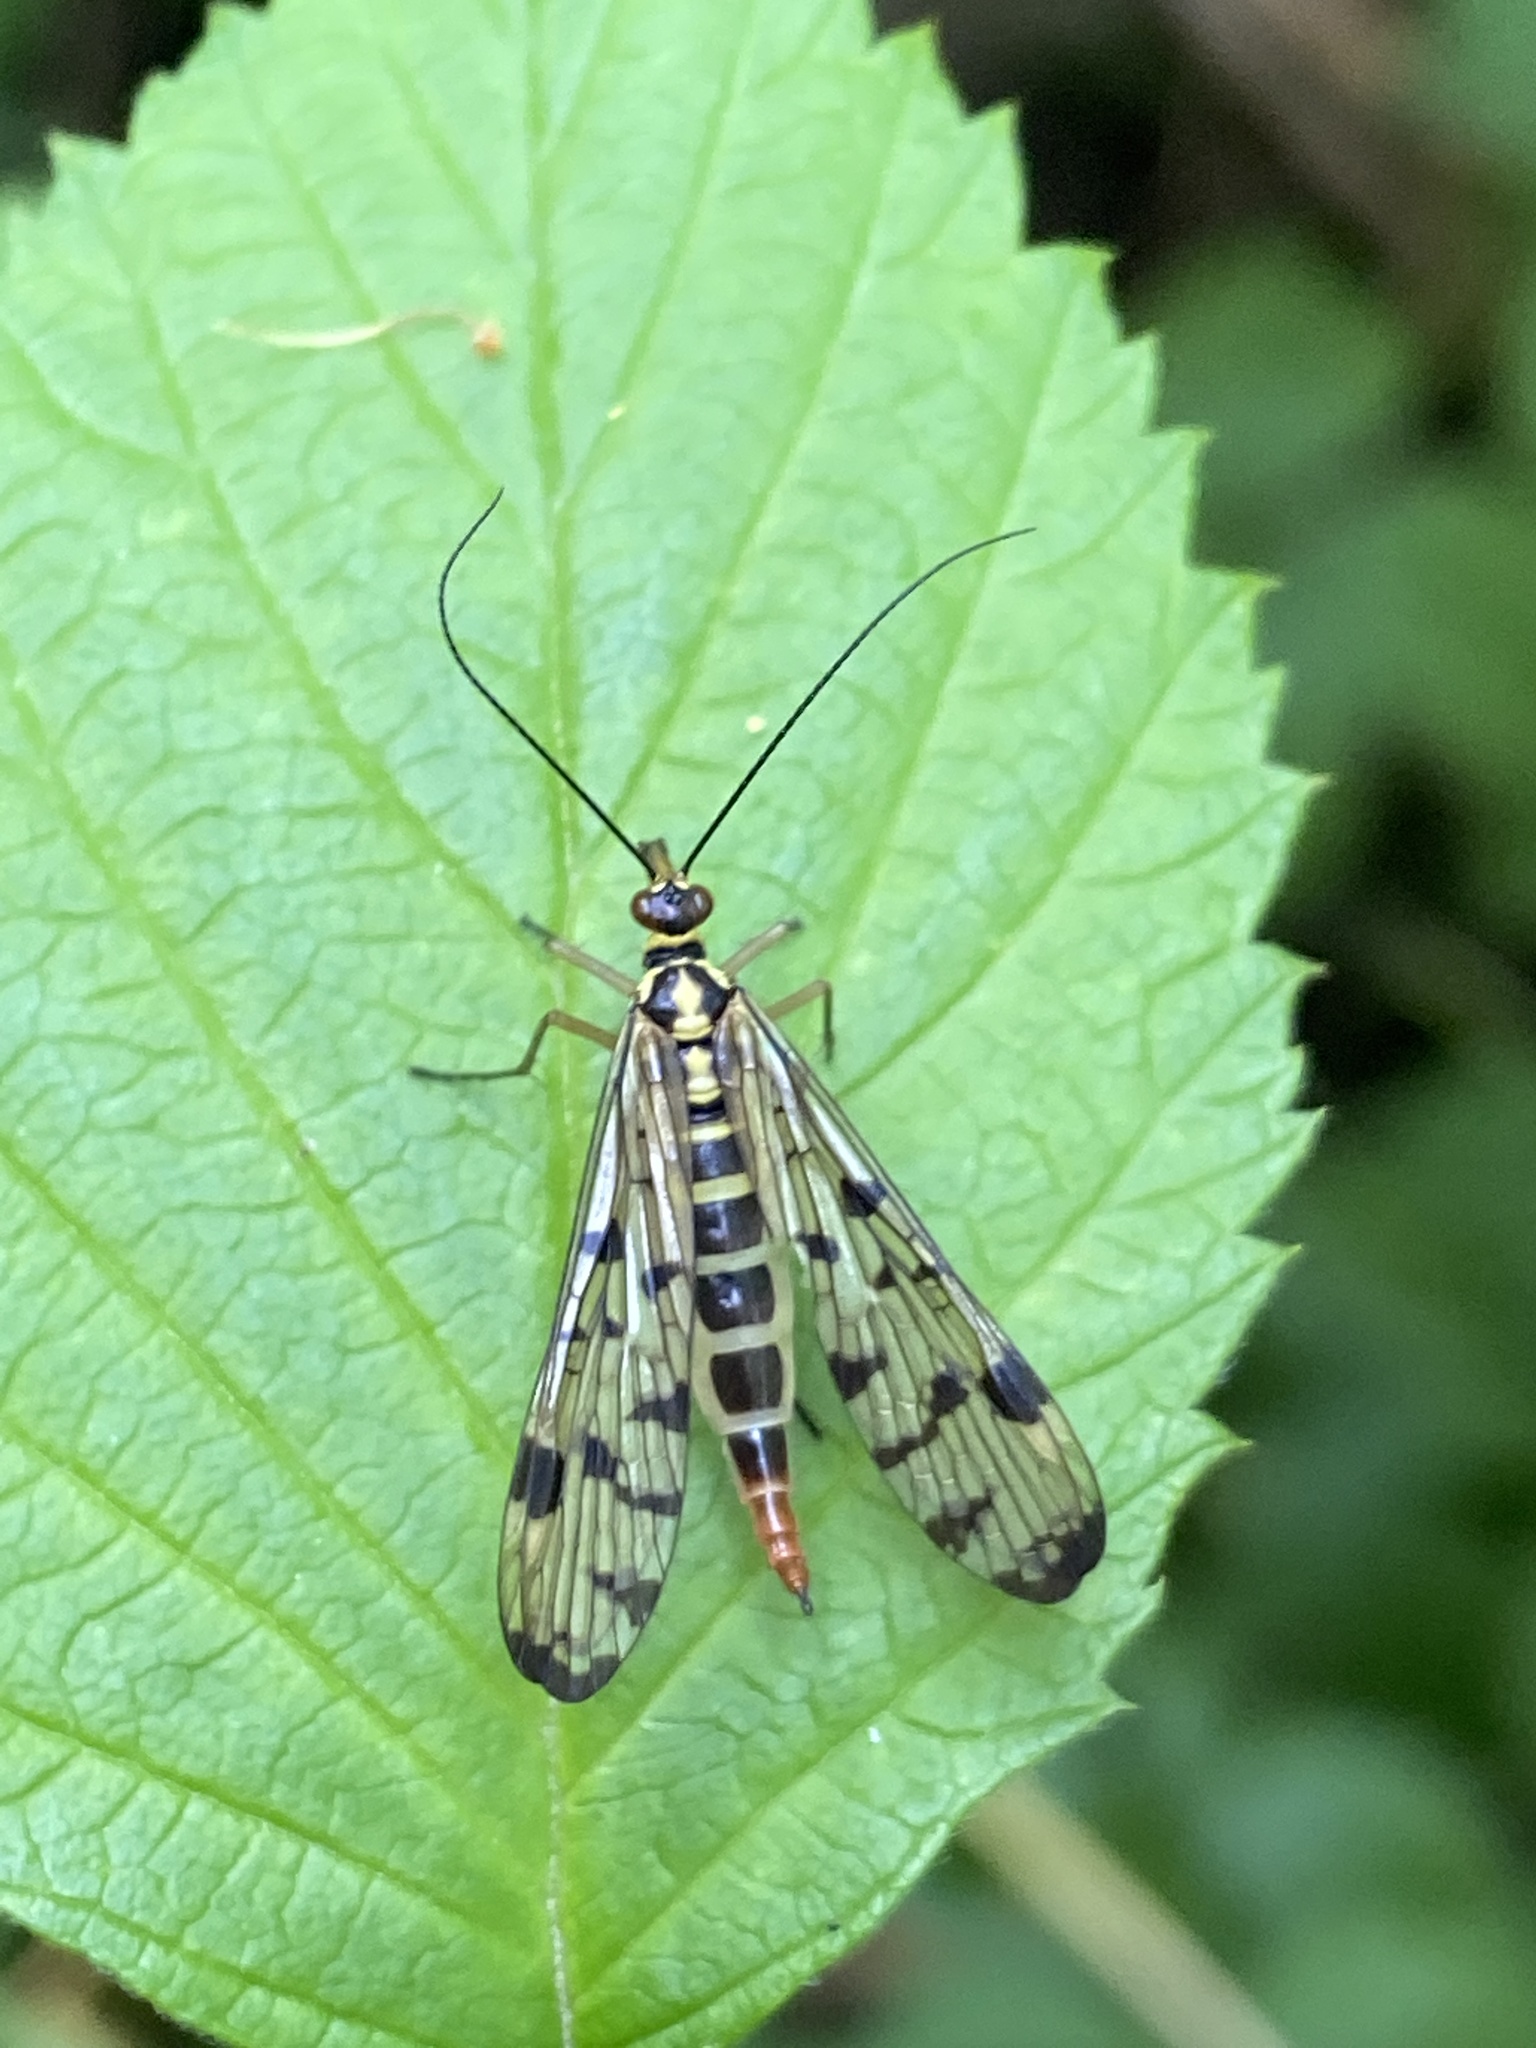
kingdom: Animalia
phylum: Arthropoda
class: Insecta
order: Mecoptera
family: Panorpidae
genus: Panorpa
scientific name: Panorpa germanica
